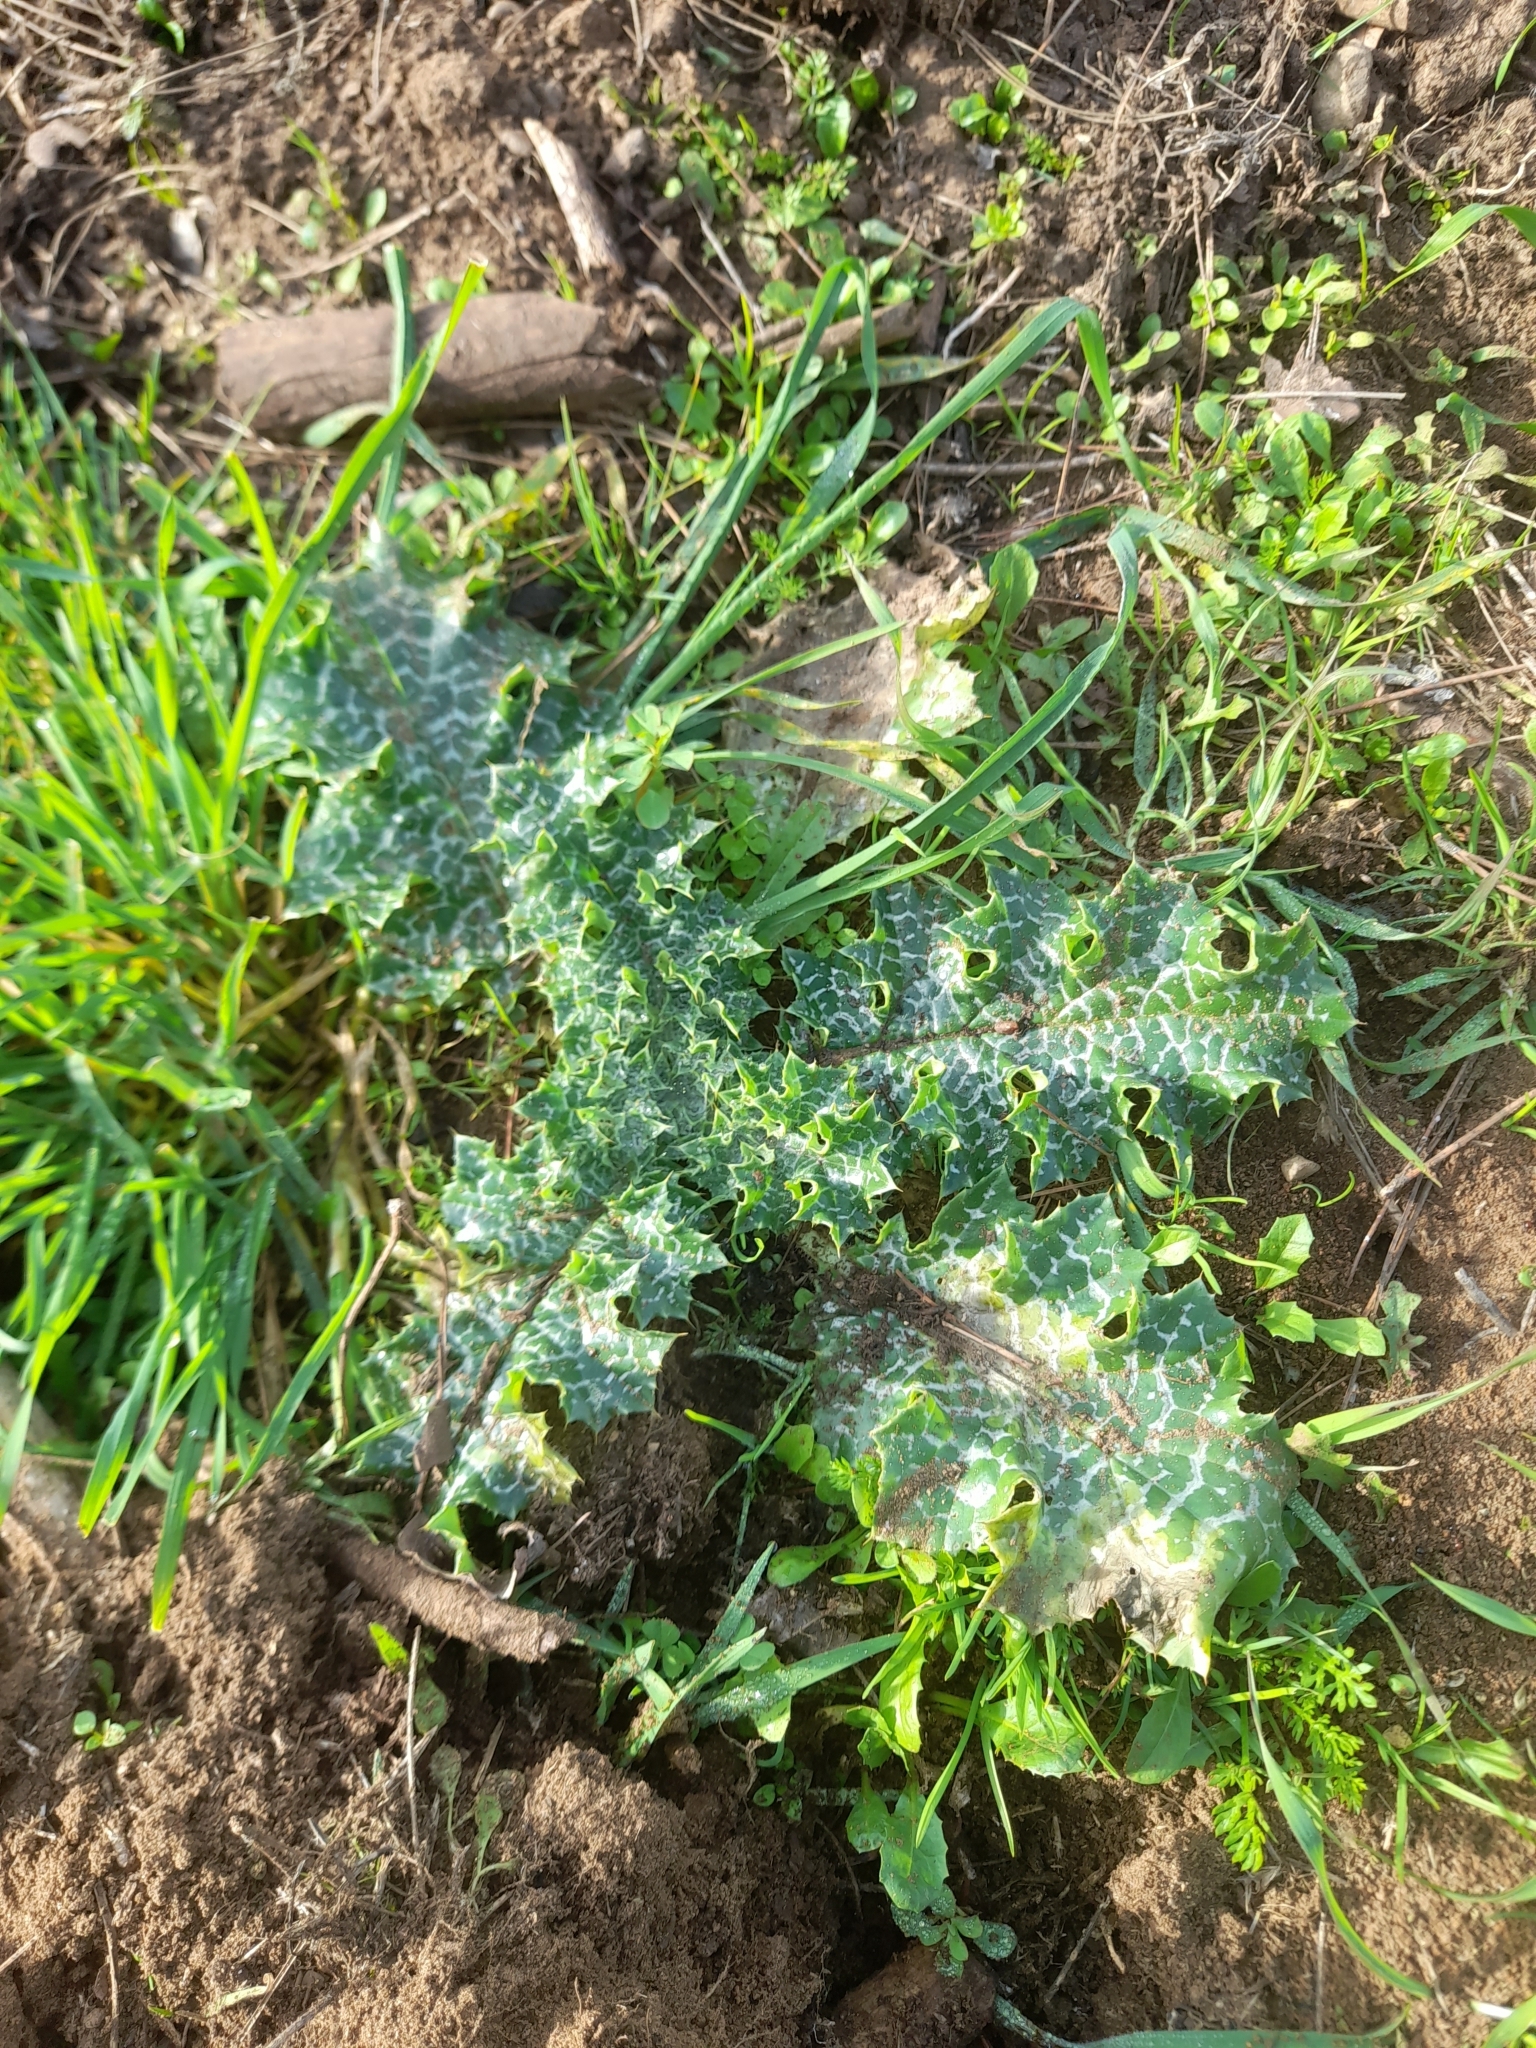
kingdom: Plantae
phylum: Tracheophyta
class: Magnoliopsida
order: Asterales
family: Asteraceae
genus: Silybum
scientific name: Silybum marianum
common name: Milk thistle
